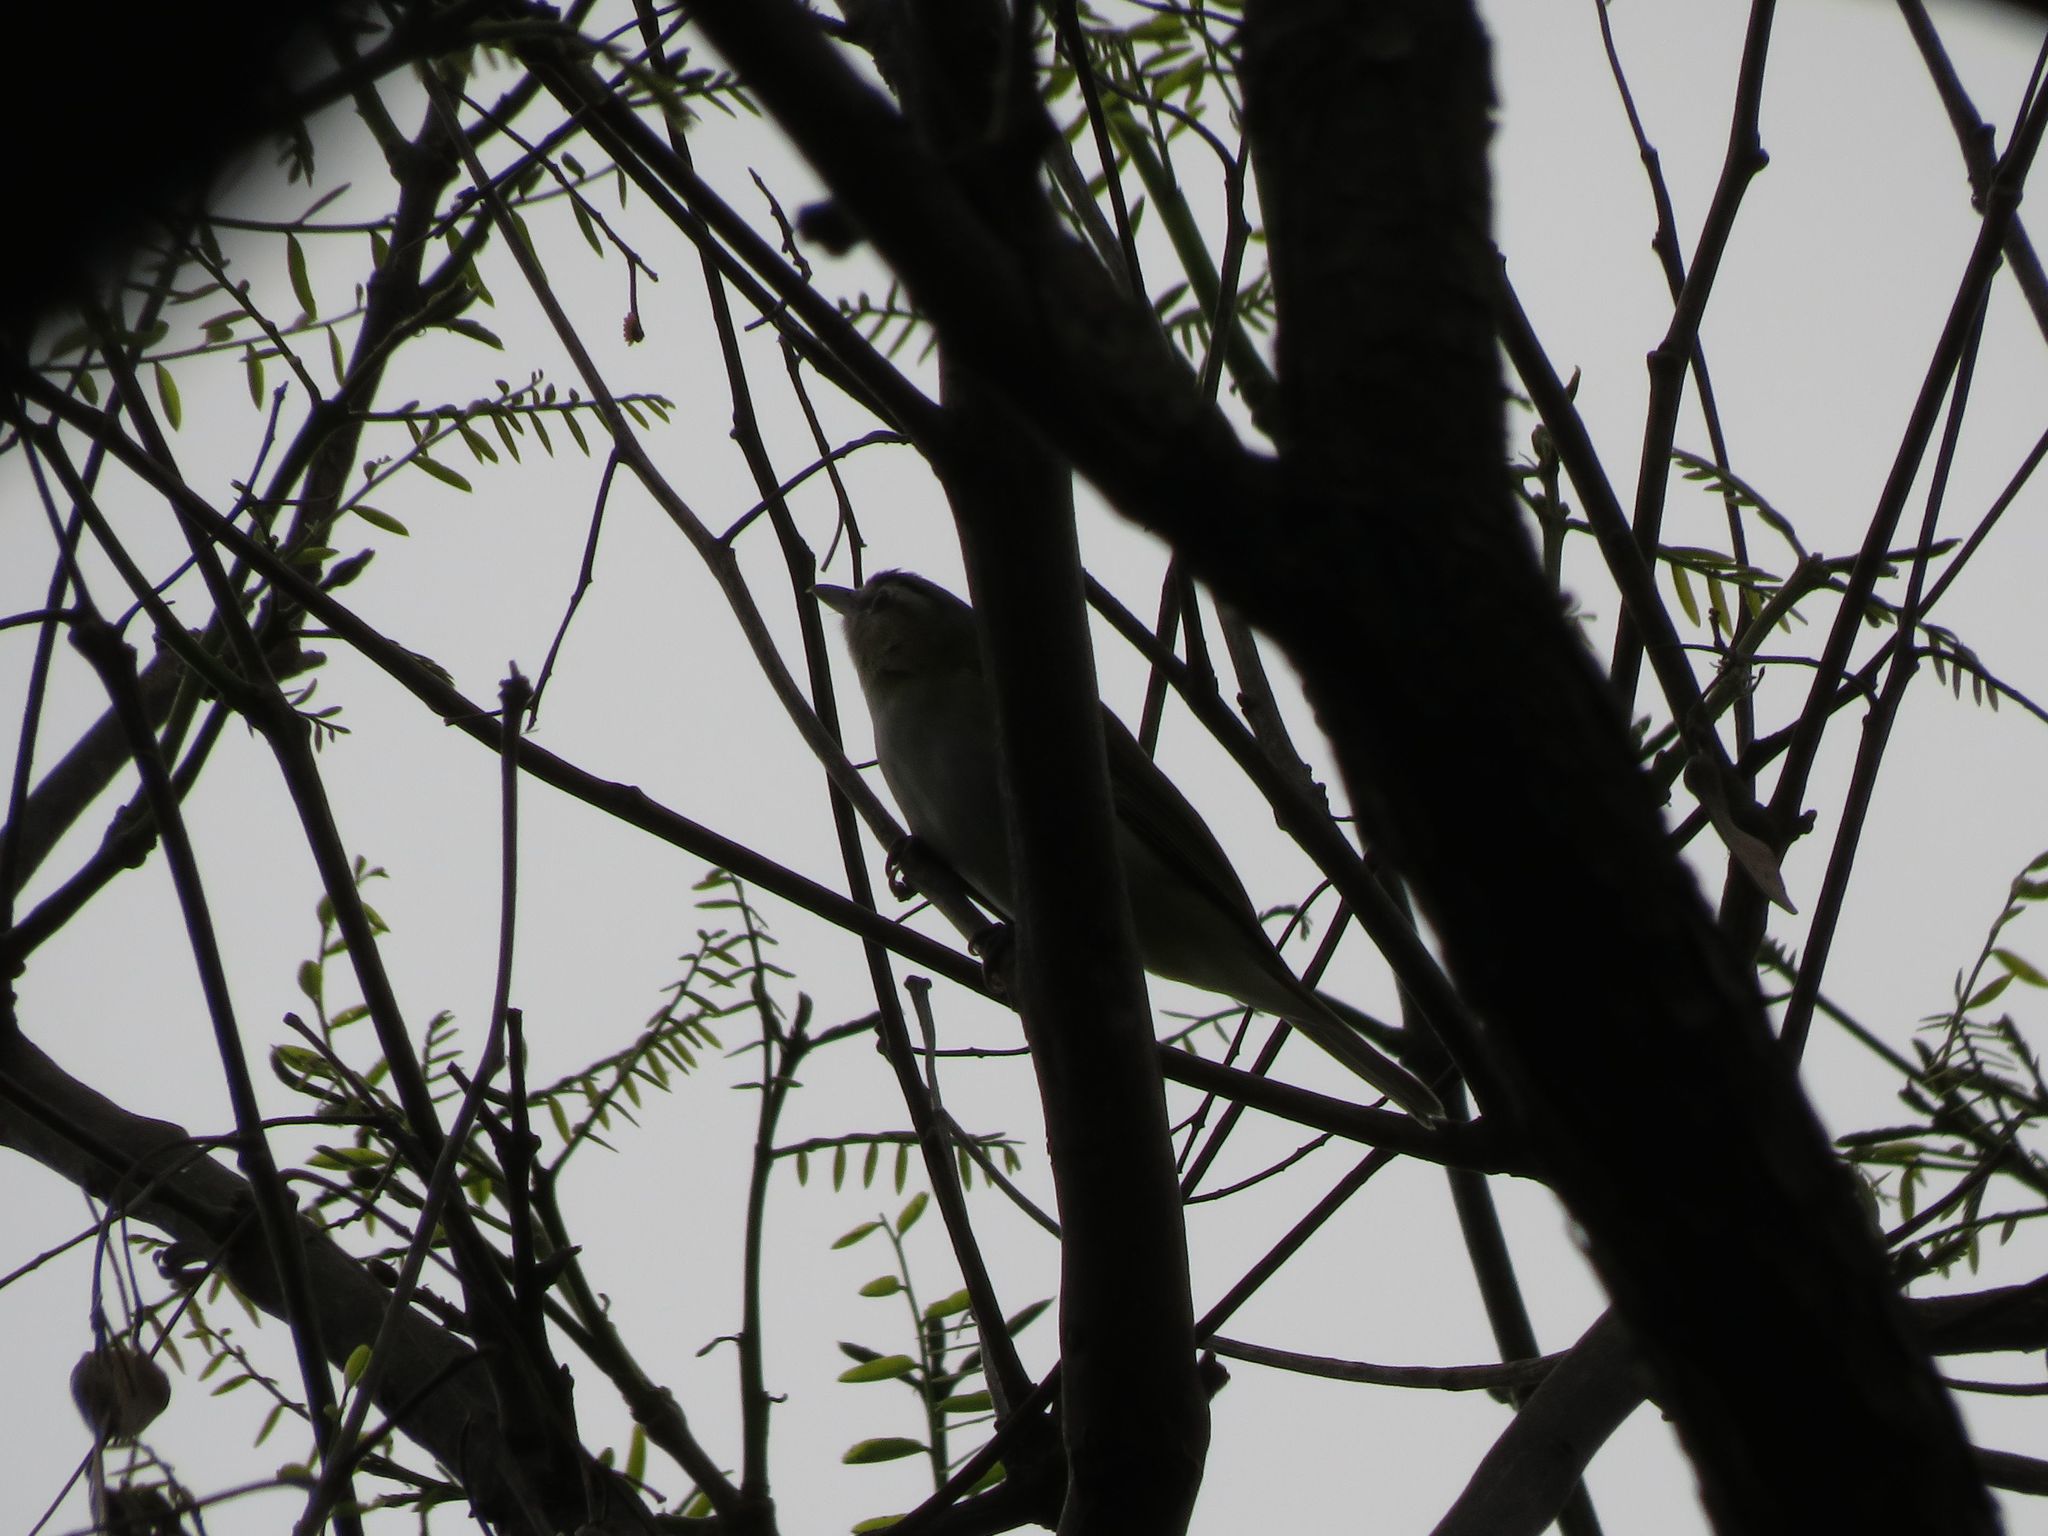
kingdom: Animalia
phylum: Chordata
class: Aves
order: Passeriformes
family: Vireonidae
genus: Vireo
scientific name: Vireo olivaceus
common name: Red-eyed vireo
